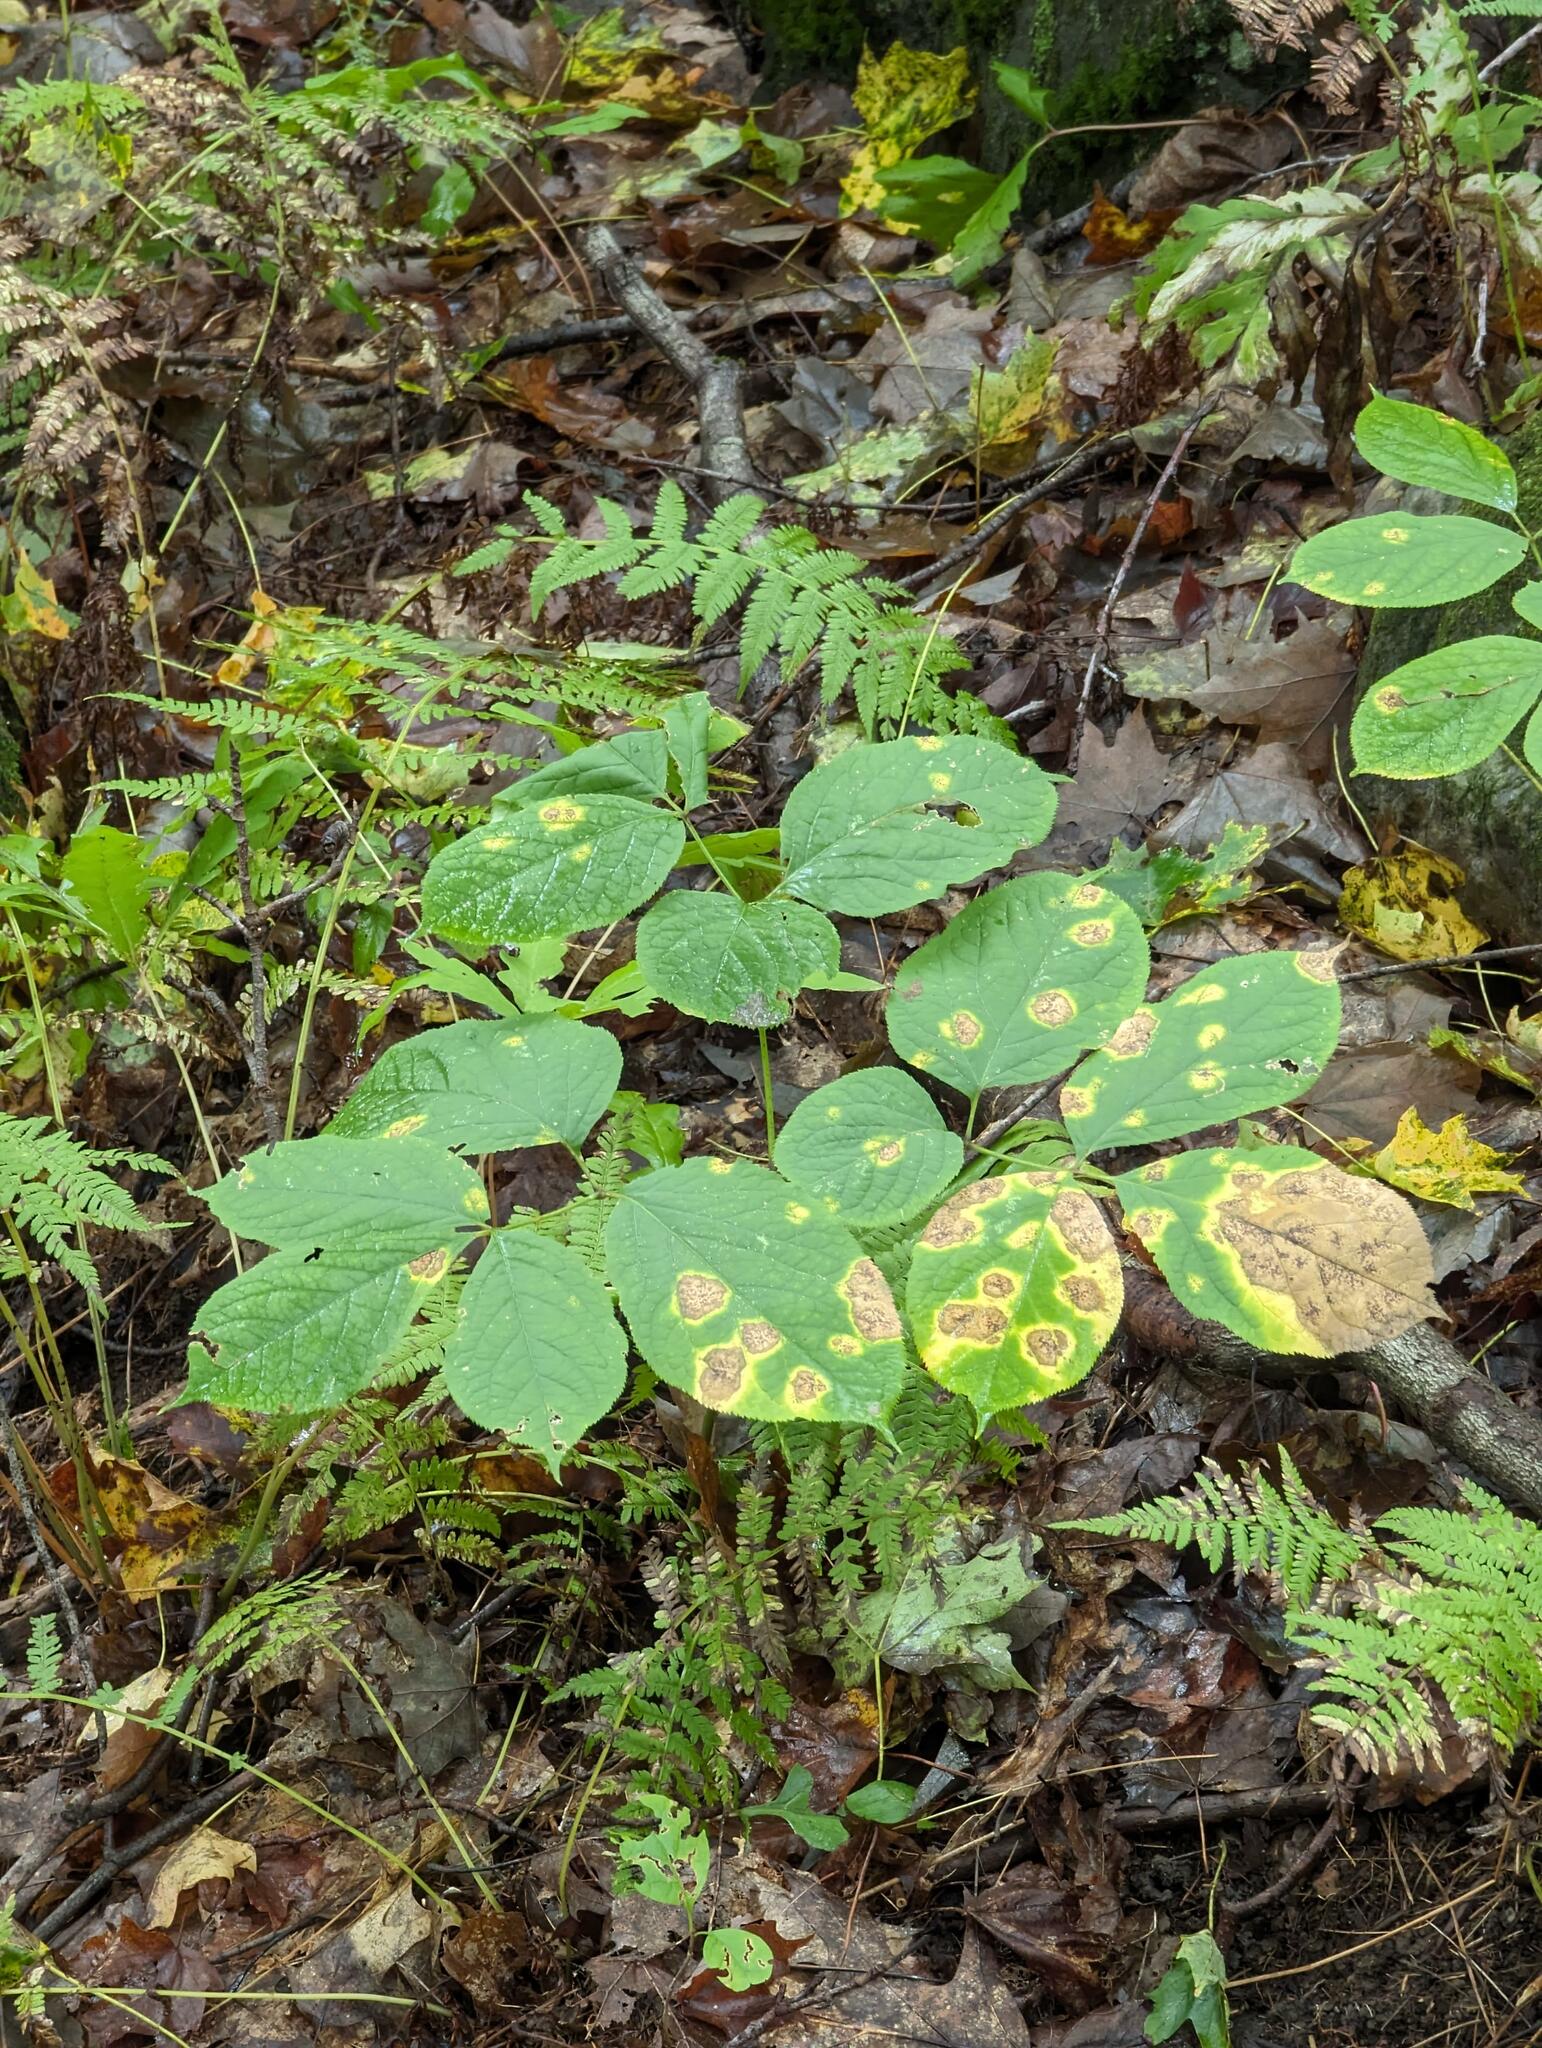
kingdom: Plantae
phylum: Tracheophyta
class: Magnoliopsida
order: Apiales
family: Araliaceae
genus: Aralia
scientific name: Aralia nudicaulis
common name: Wild sarsaparilla
